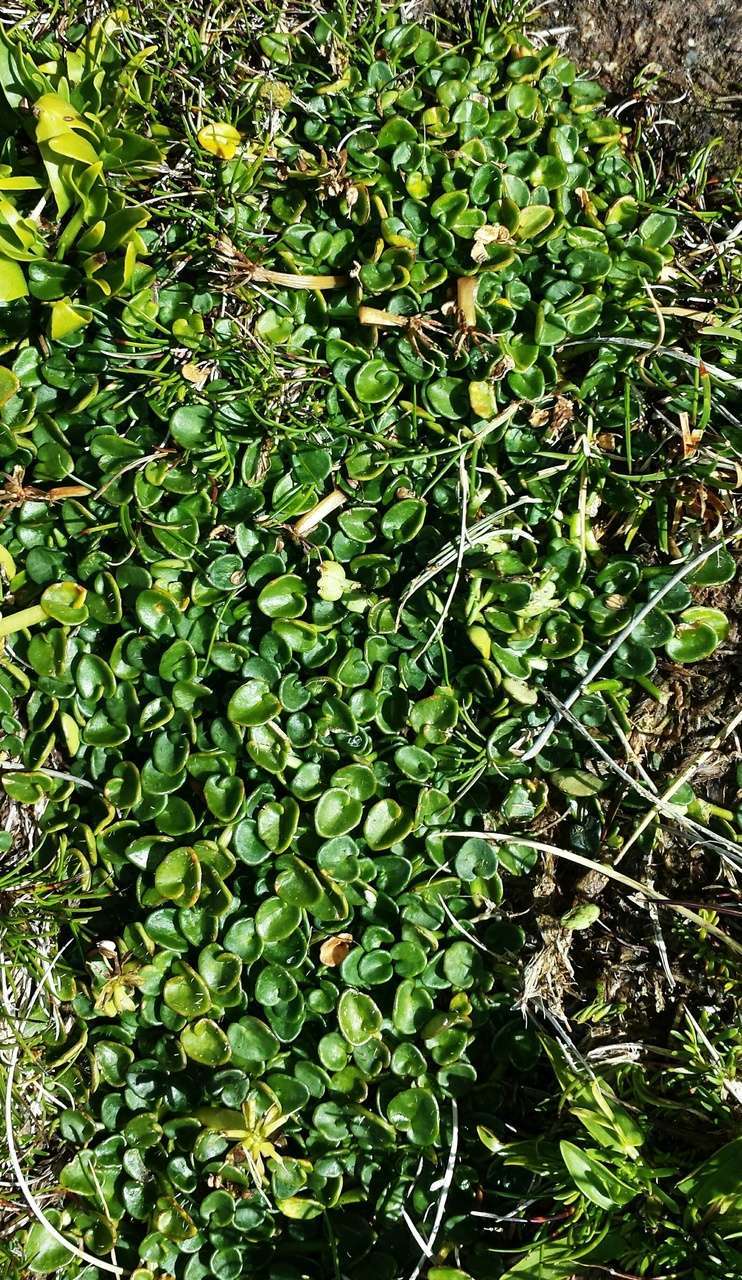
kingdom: Plantae
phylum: Tracheophyta
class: Magnoliopsida
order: Apiales
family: Apiaceae
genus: Diplaspis
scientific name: Diplaspis nivis
